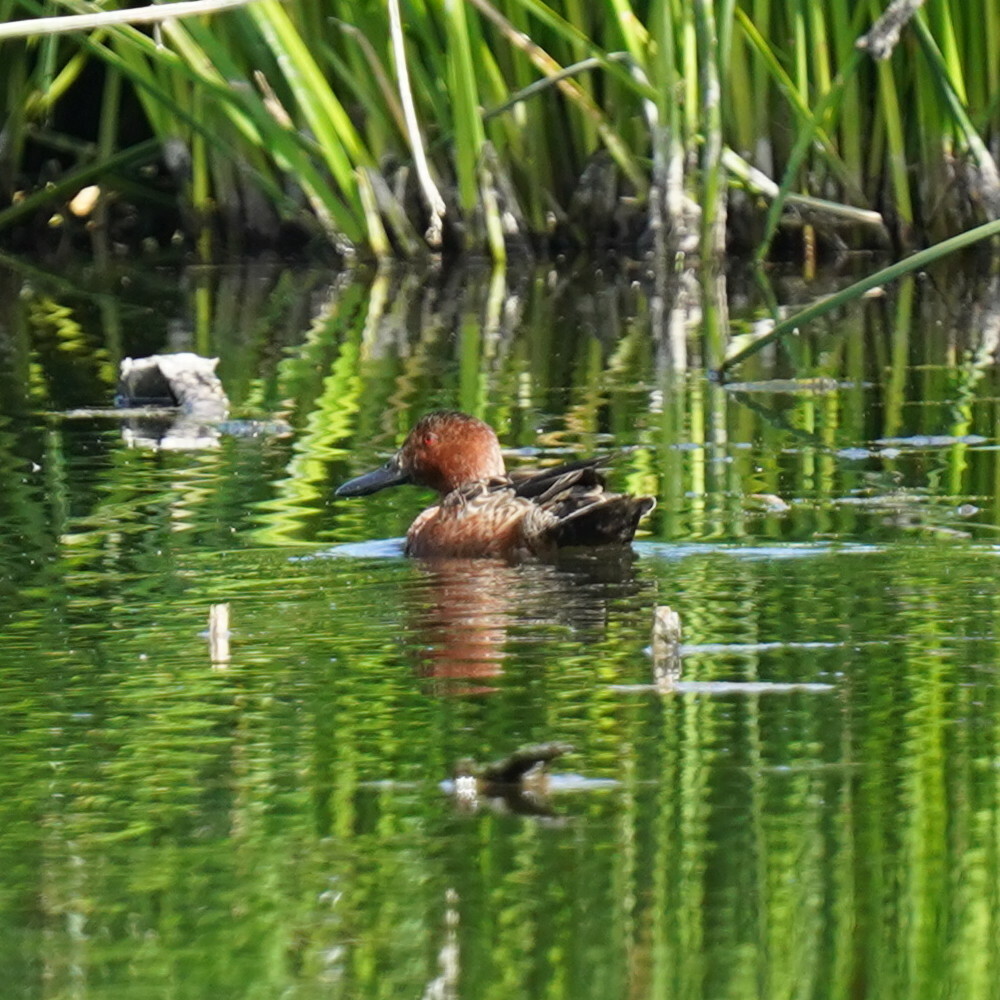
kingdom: Animalia
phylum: Chordata
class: Aves
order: Anseriformes
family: Anatidae
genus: Spatula
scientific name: Spatula cyanoptera
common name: Cinnamon teal
